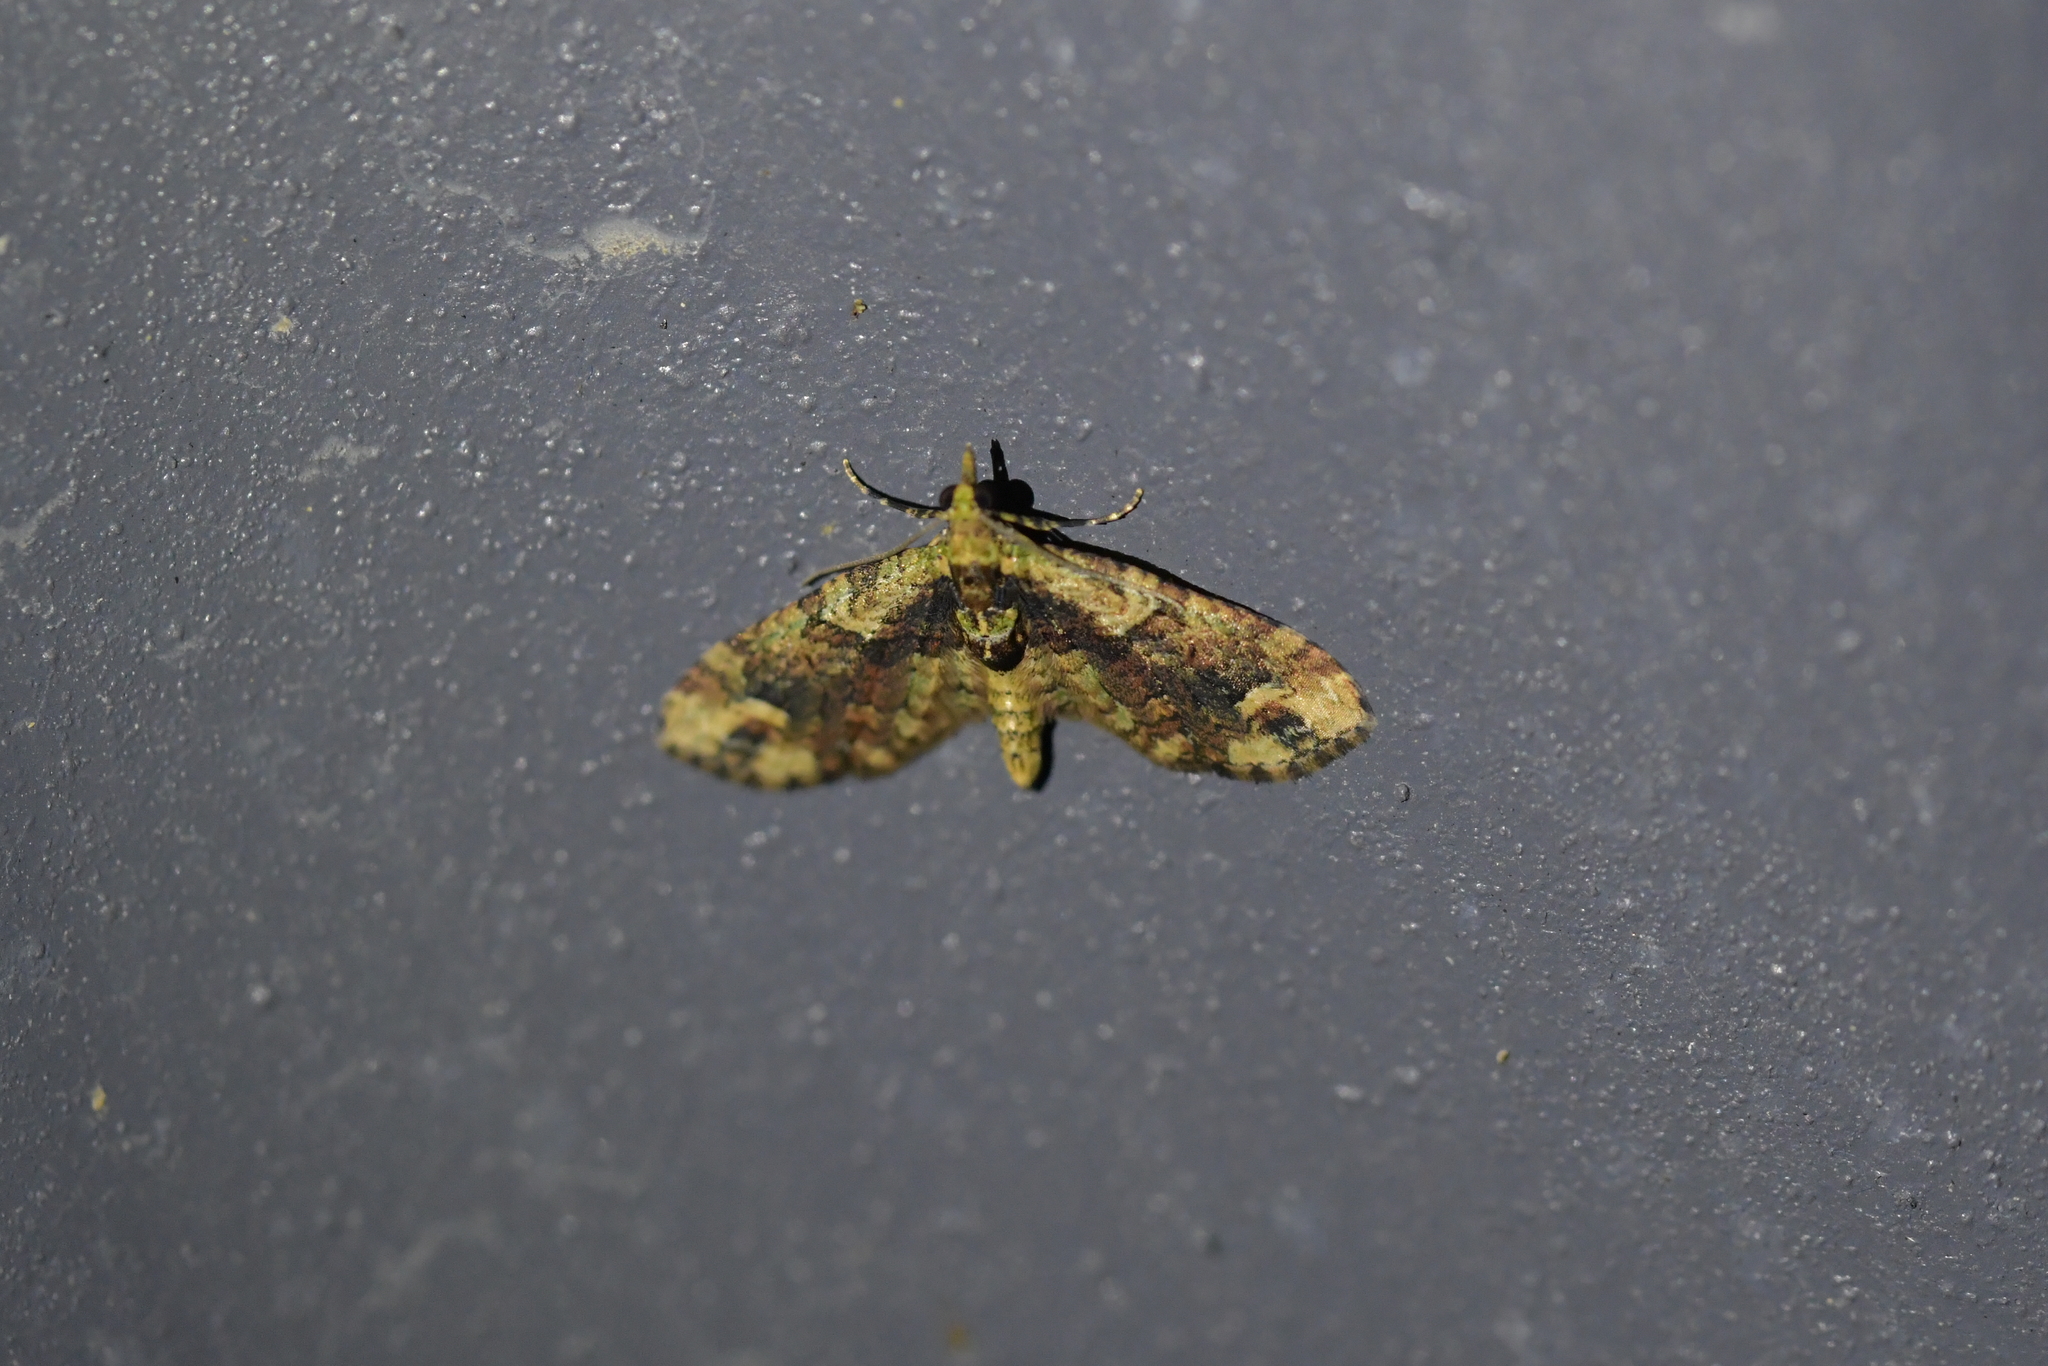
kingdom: Animalia
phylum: Arthropoda
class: Insecta
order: Lepidoptera
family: Geometridae
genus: Idaea
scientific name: Idaea mutanda
